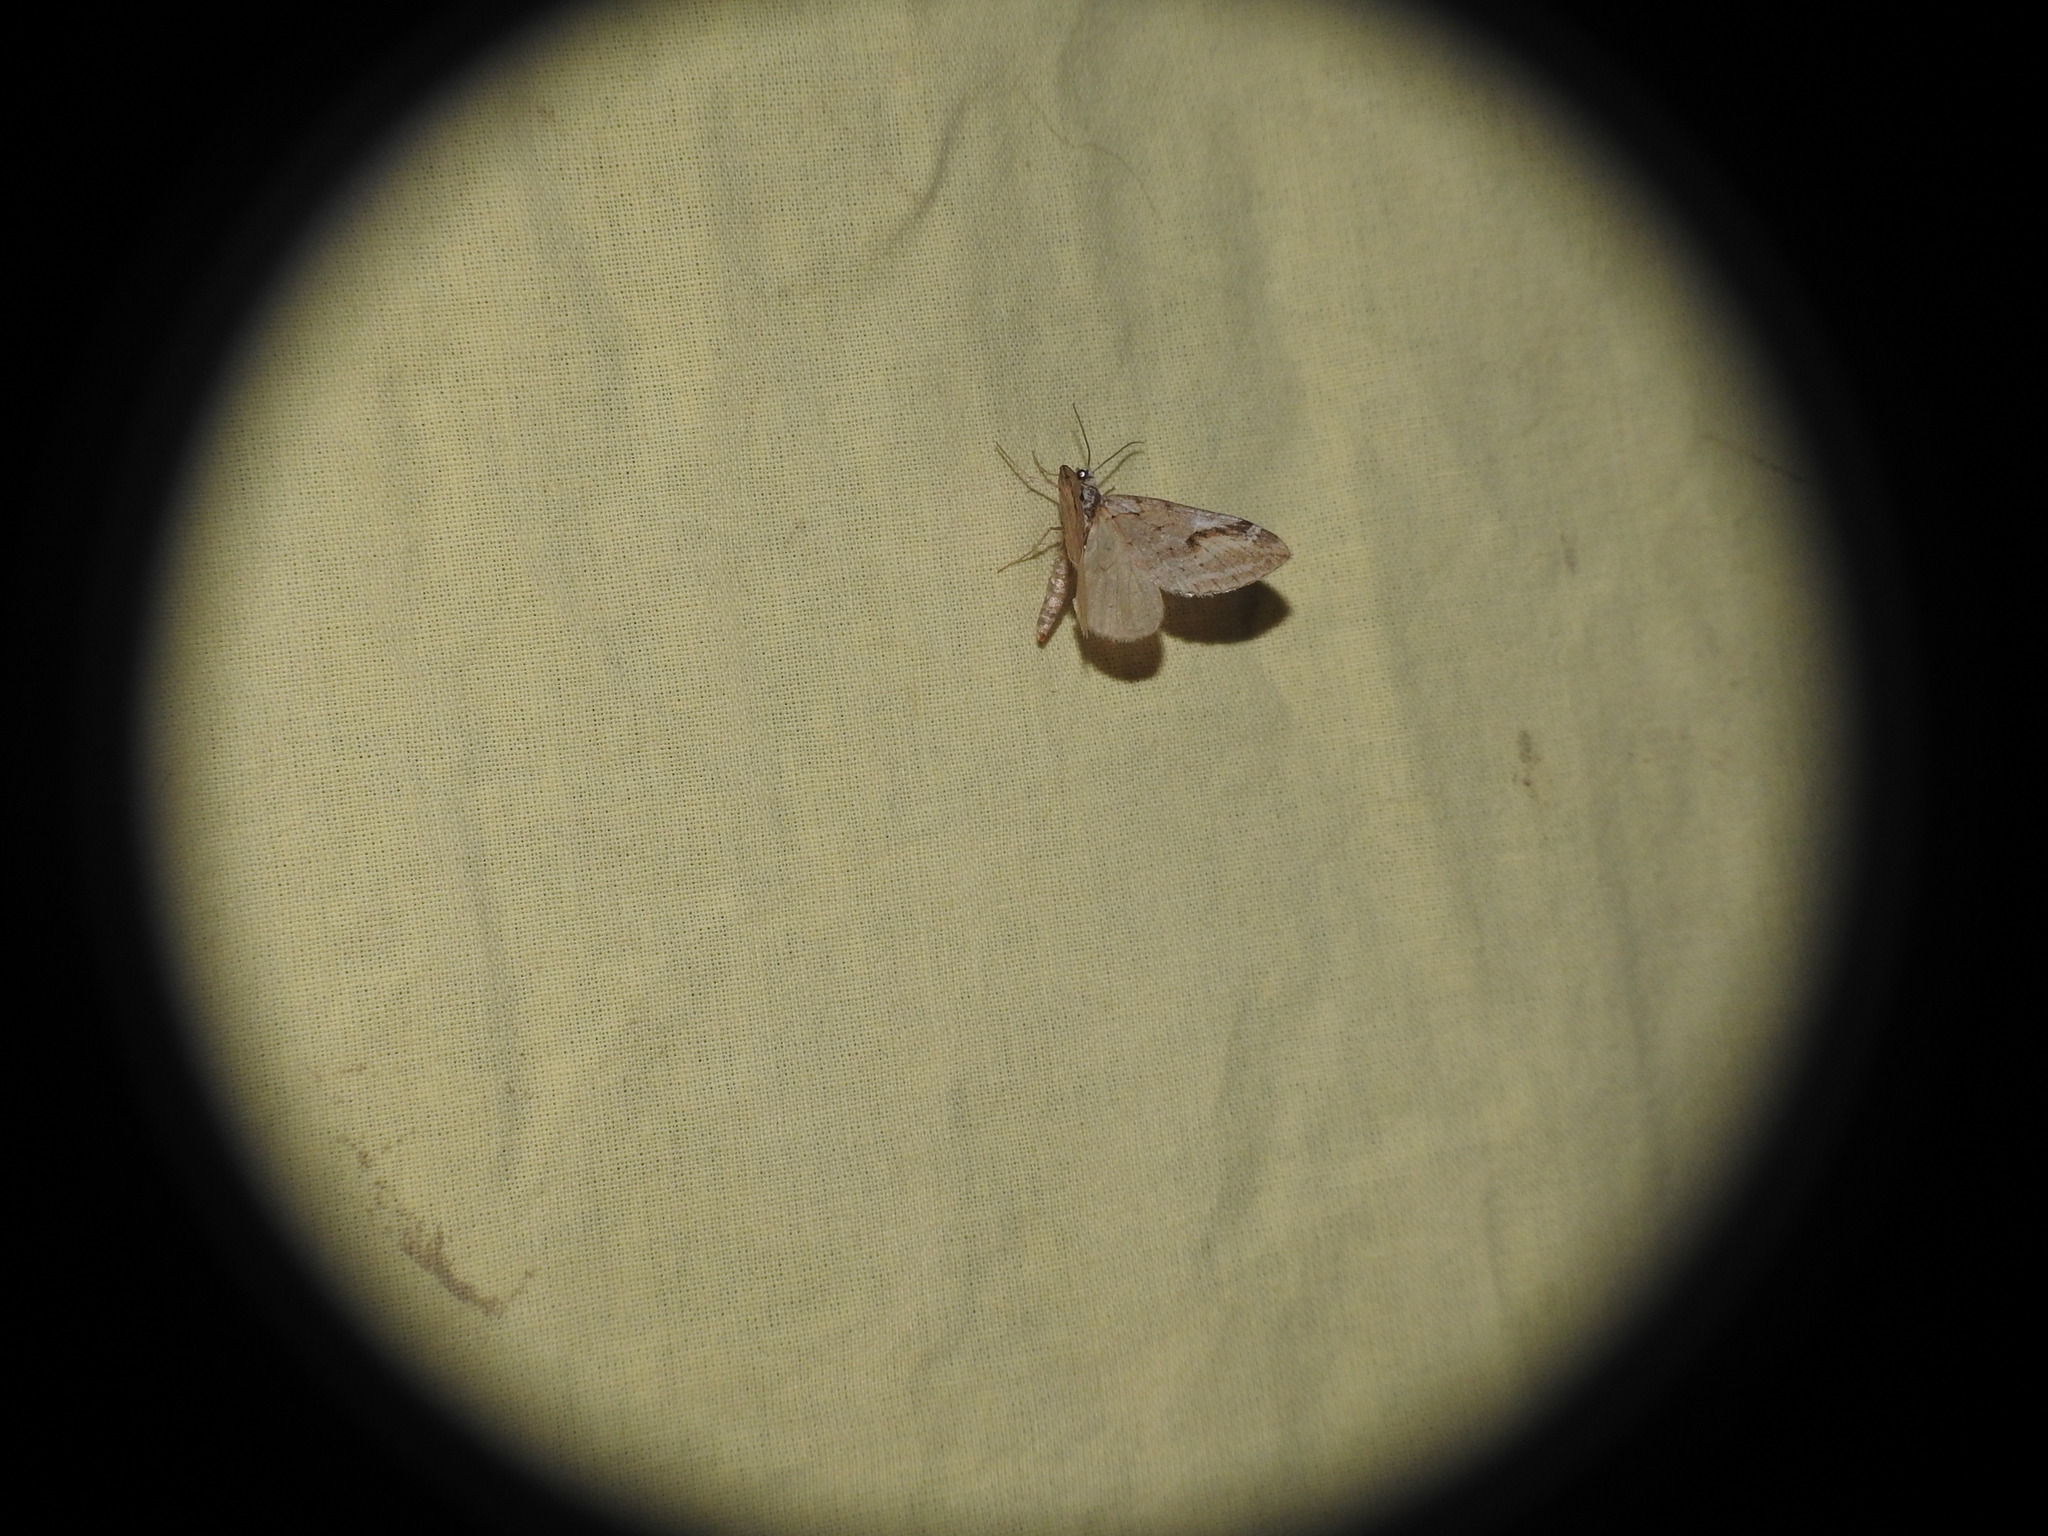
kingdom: Animalia
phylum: Arthropoda
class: Insecta
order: Lepidoptera
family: Geometridae
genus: Chesias
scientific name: Chesias rufata
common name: Broom-tip
